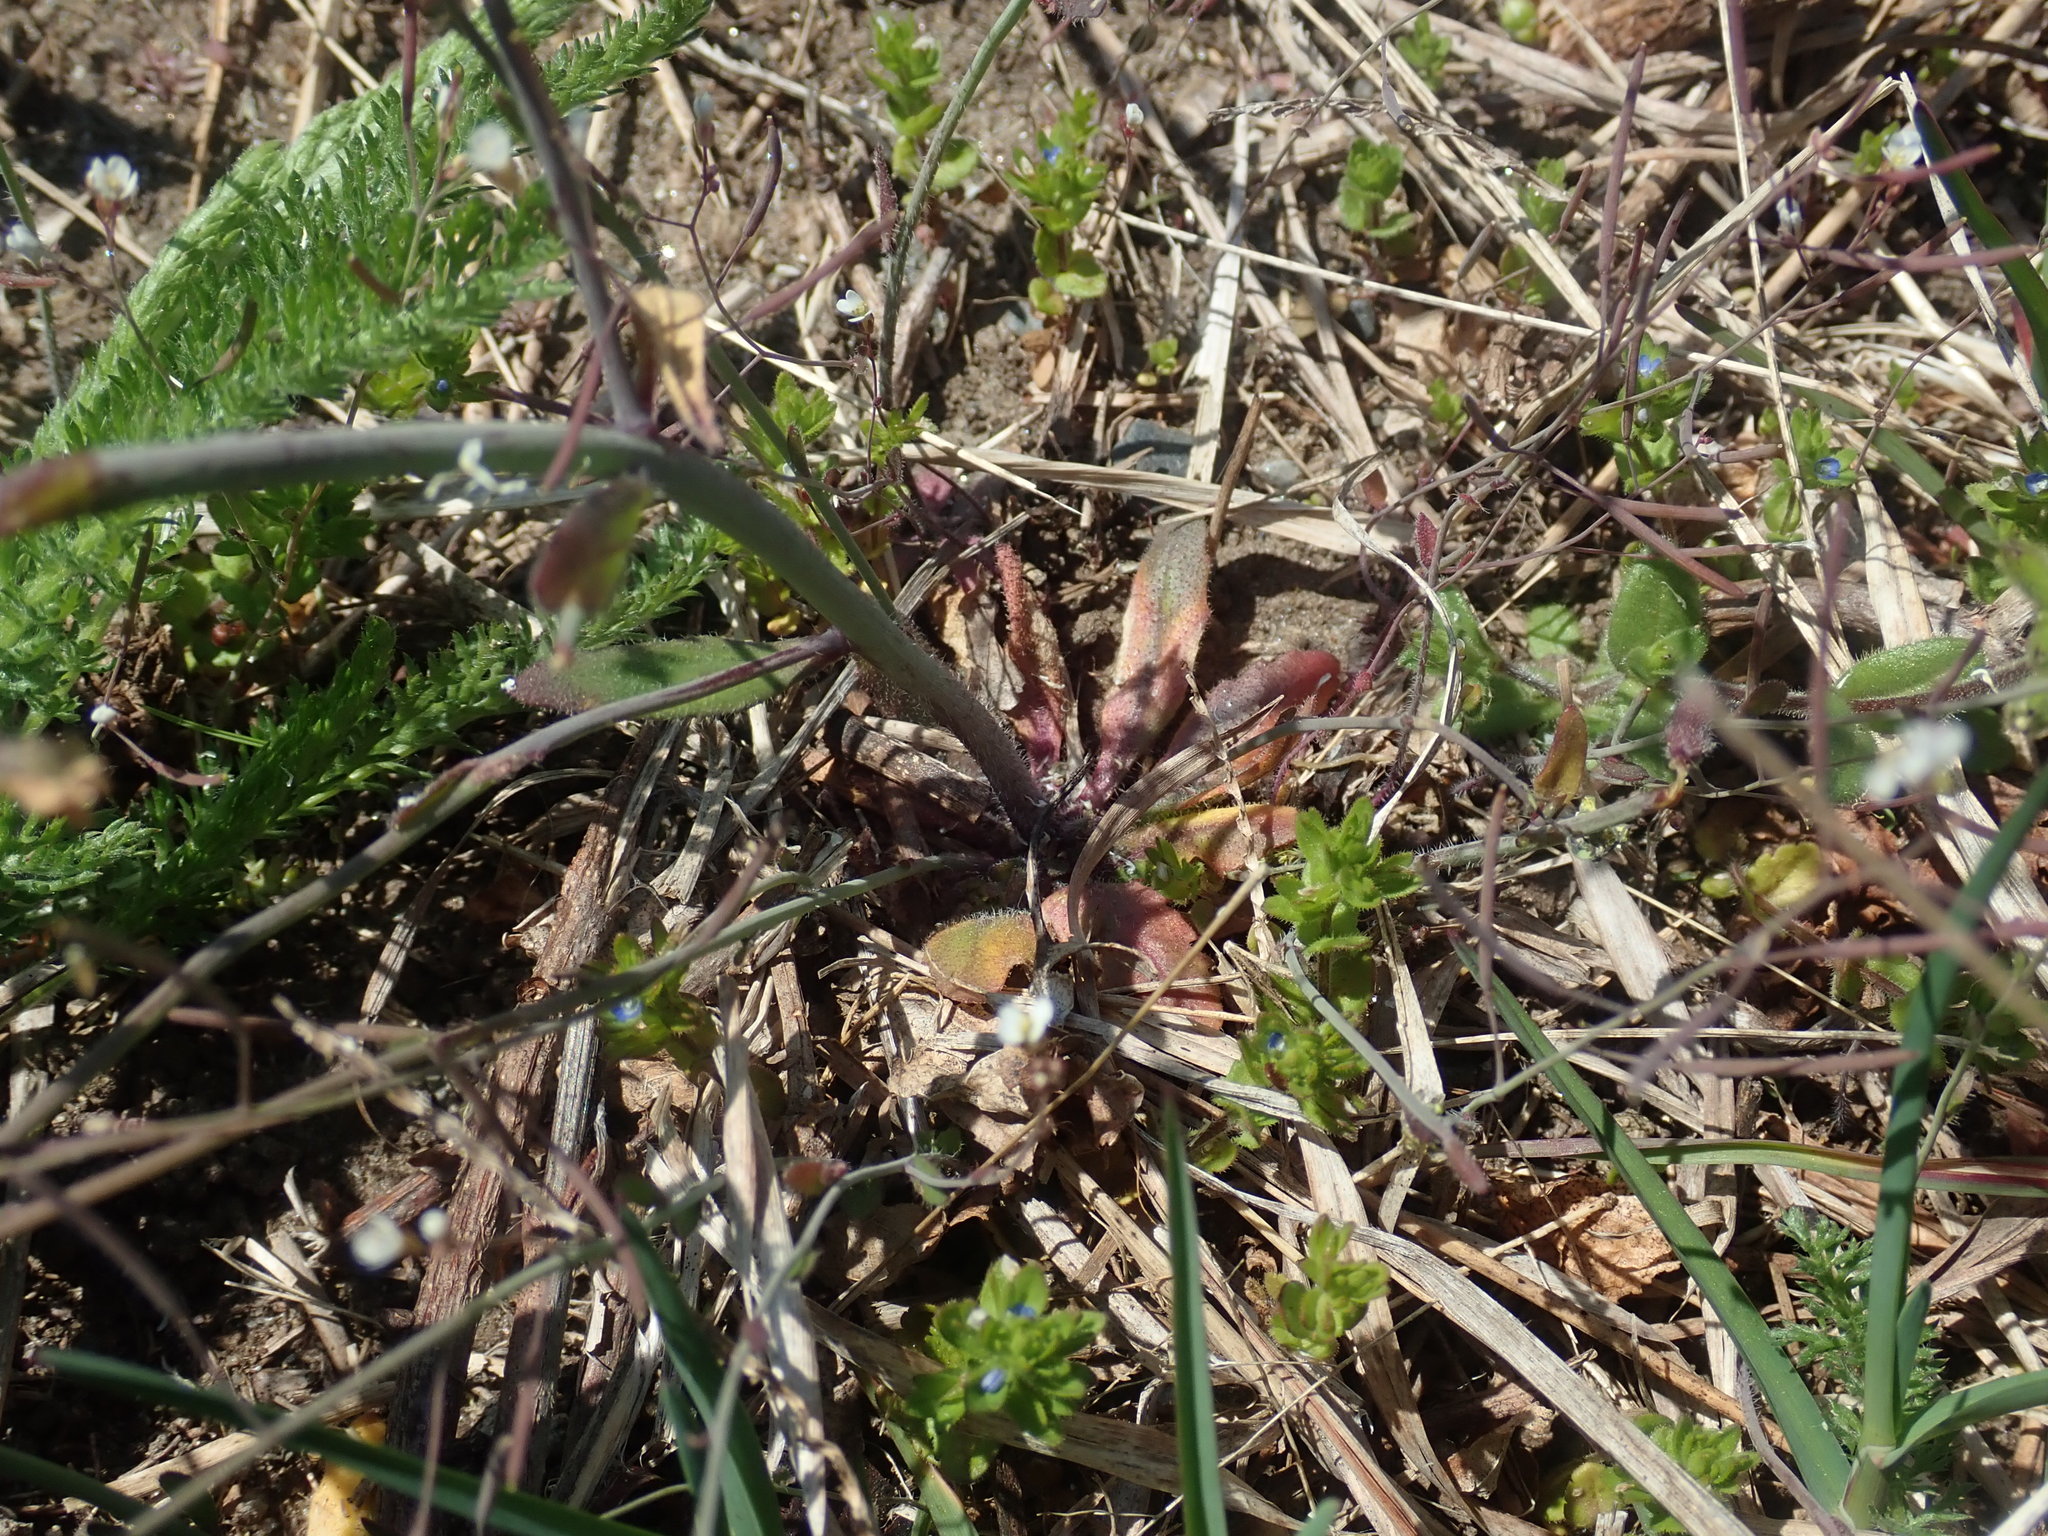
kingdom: Plantae
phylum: Tracheophyta
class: Magnoliopsida
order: Brassicales
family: Brassicaceae
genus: Arabidopsis
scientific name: Arabidopsis thaliana
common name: Thale cress
